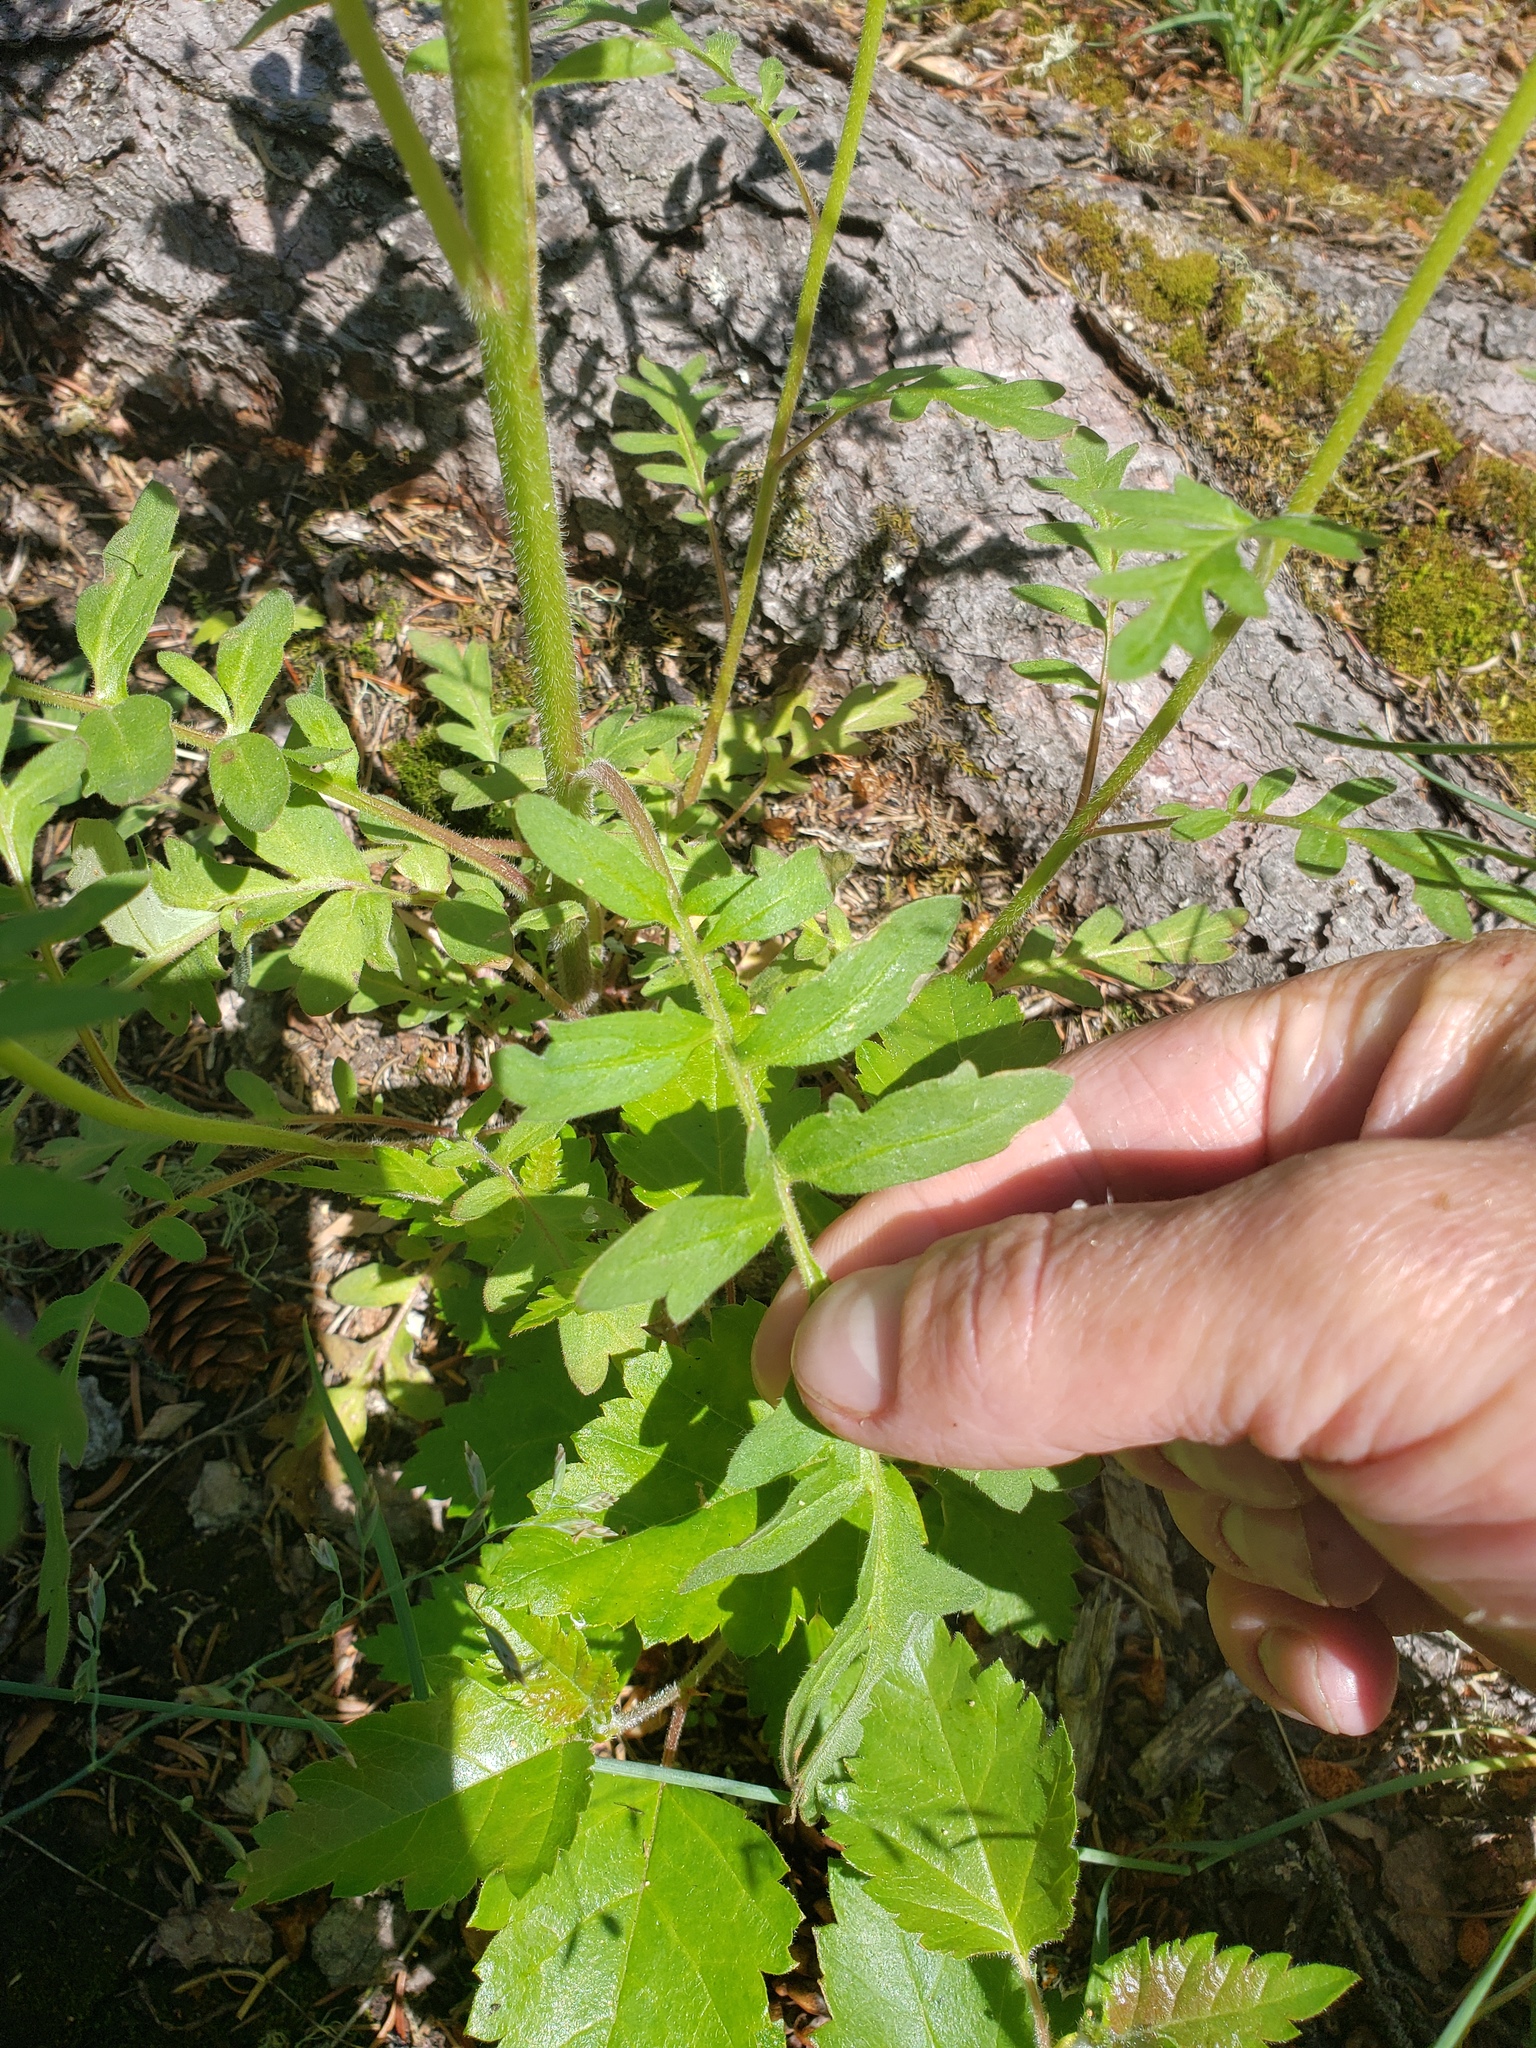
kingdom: Plantae
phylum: Tracheophyta
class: Magnoliopsida
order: Boraginales
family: Hydrophyllaceae
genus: Phacelia
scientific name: Phacelia franklinii
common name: Franklin's phacelia
